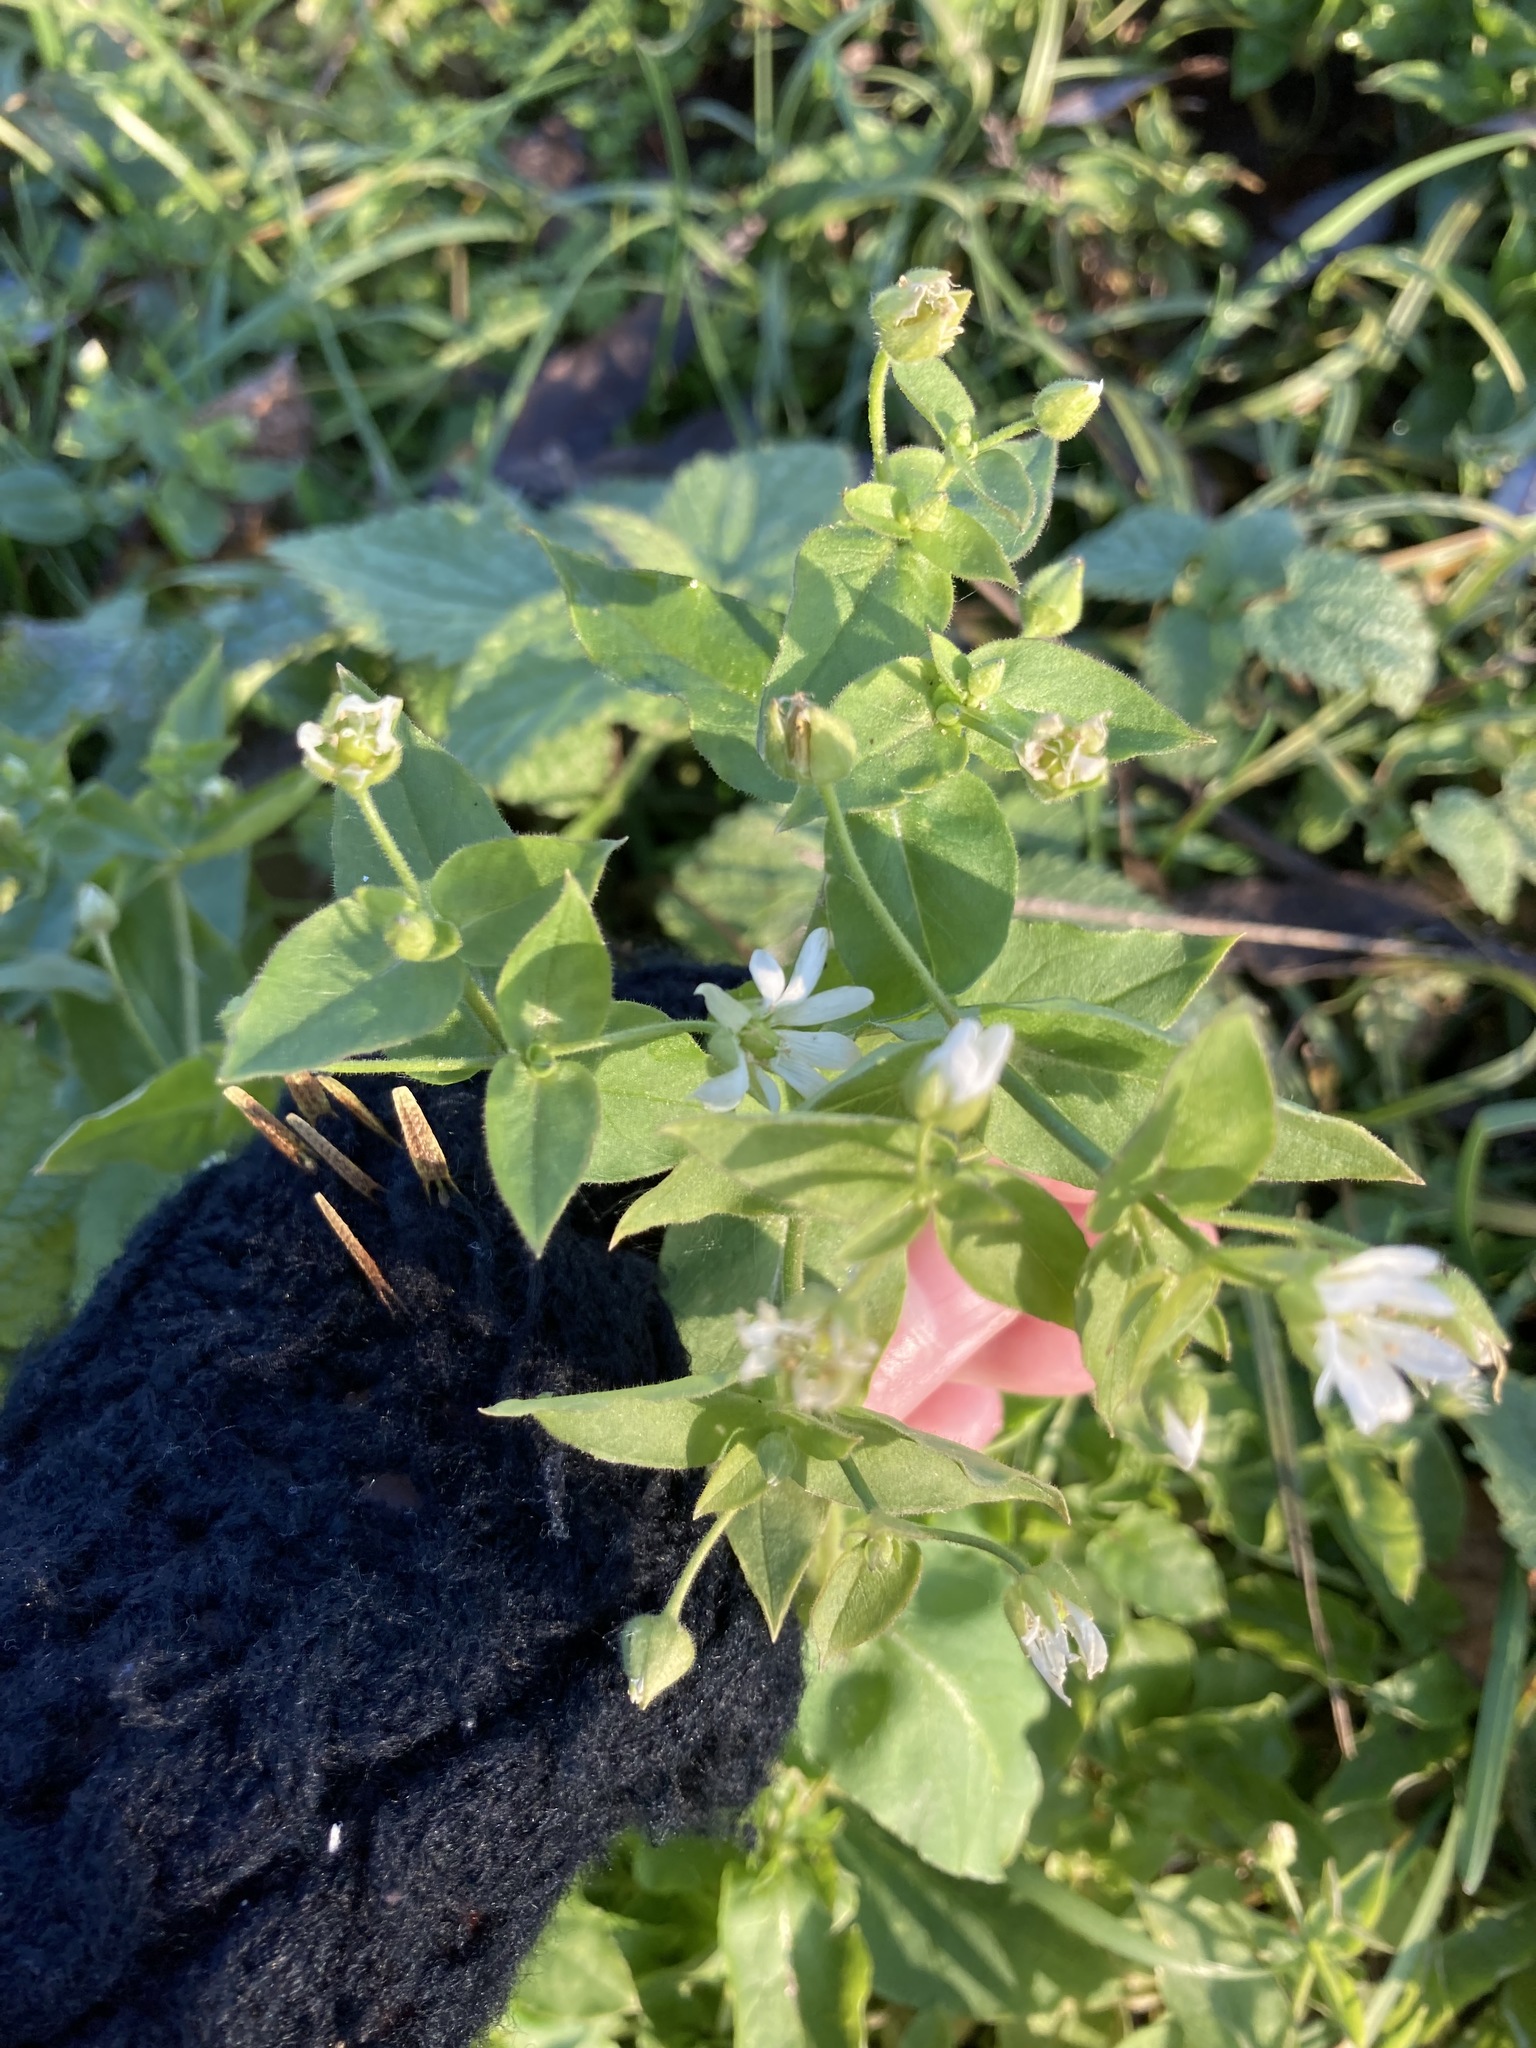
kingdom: Plantae
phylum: Tracheophyta
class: Magnoliopsida
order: Caryophyllales
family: Caryophyllaceae
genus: Stellaria
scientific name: Stellaria aquatica
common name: Water chickweed
